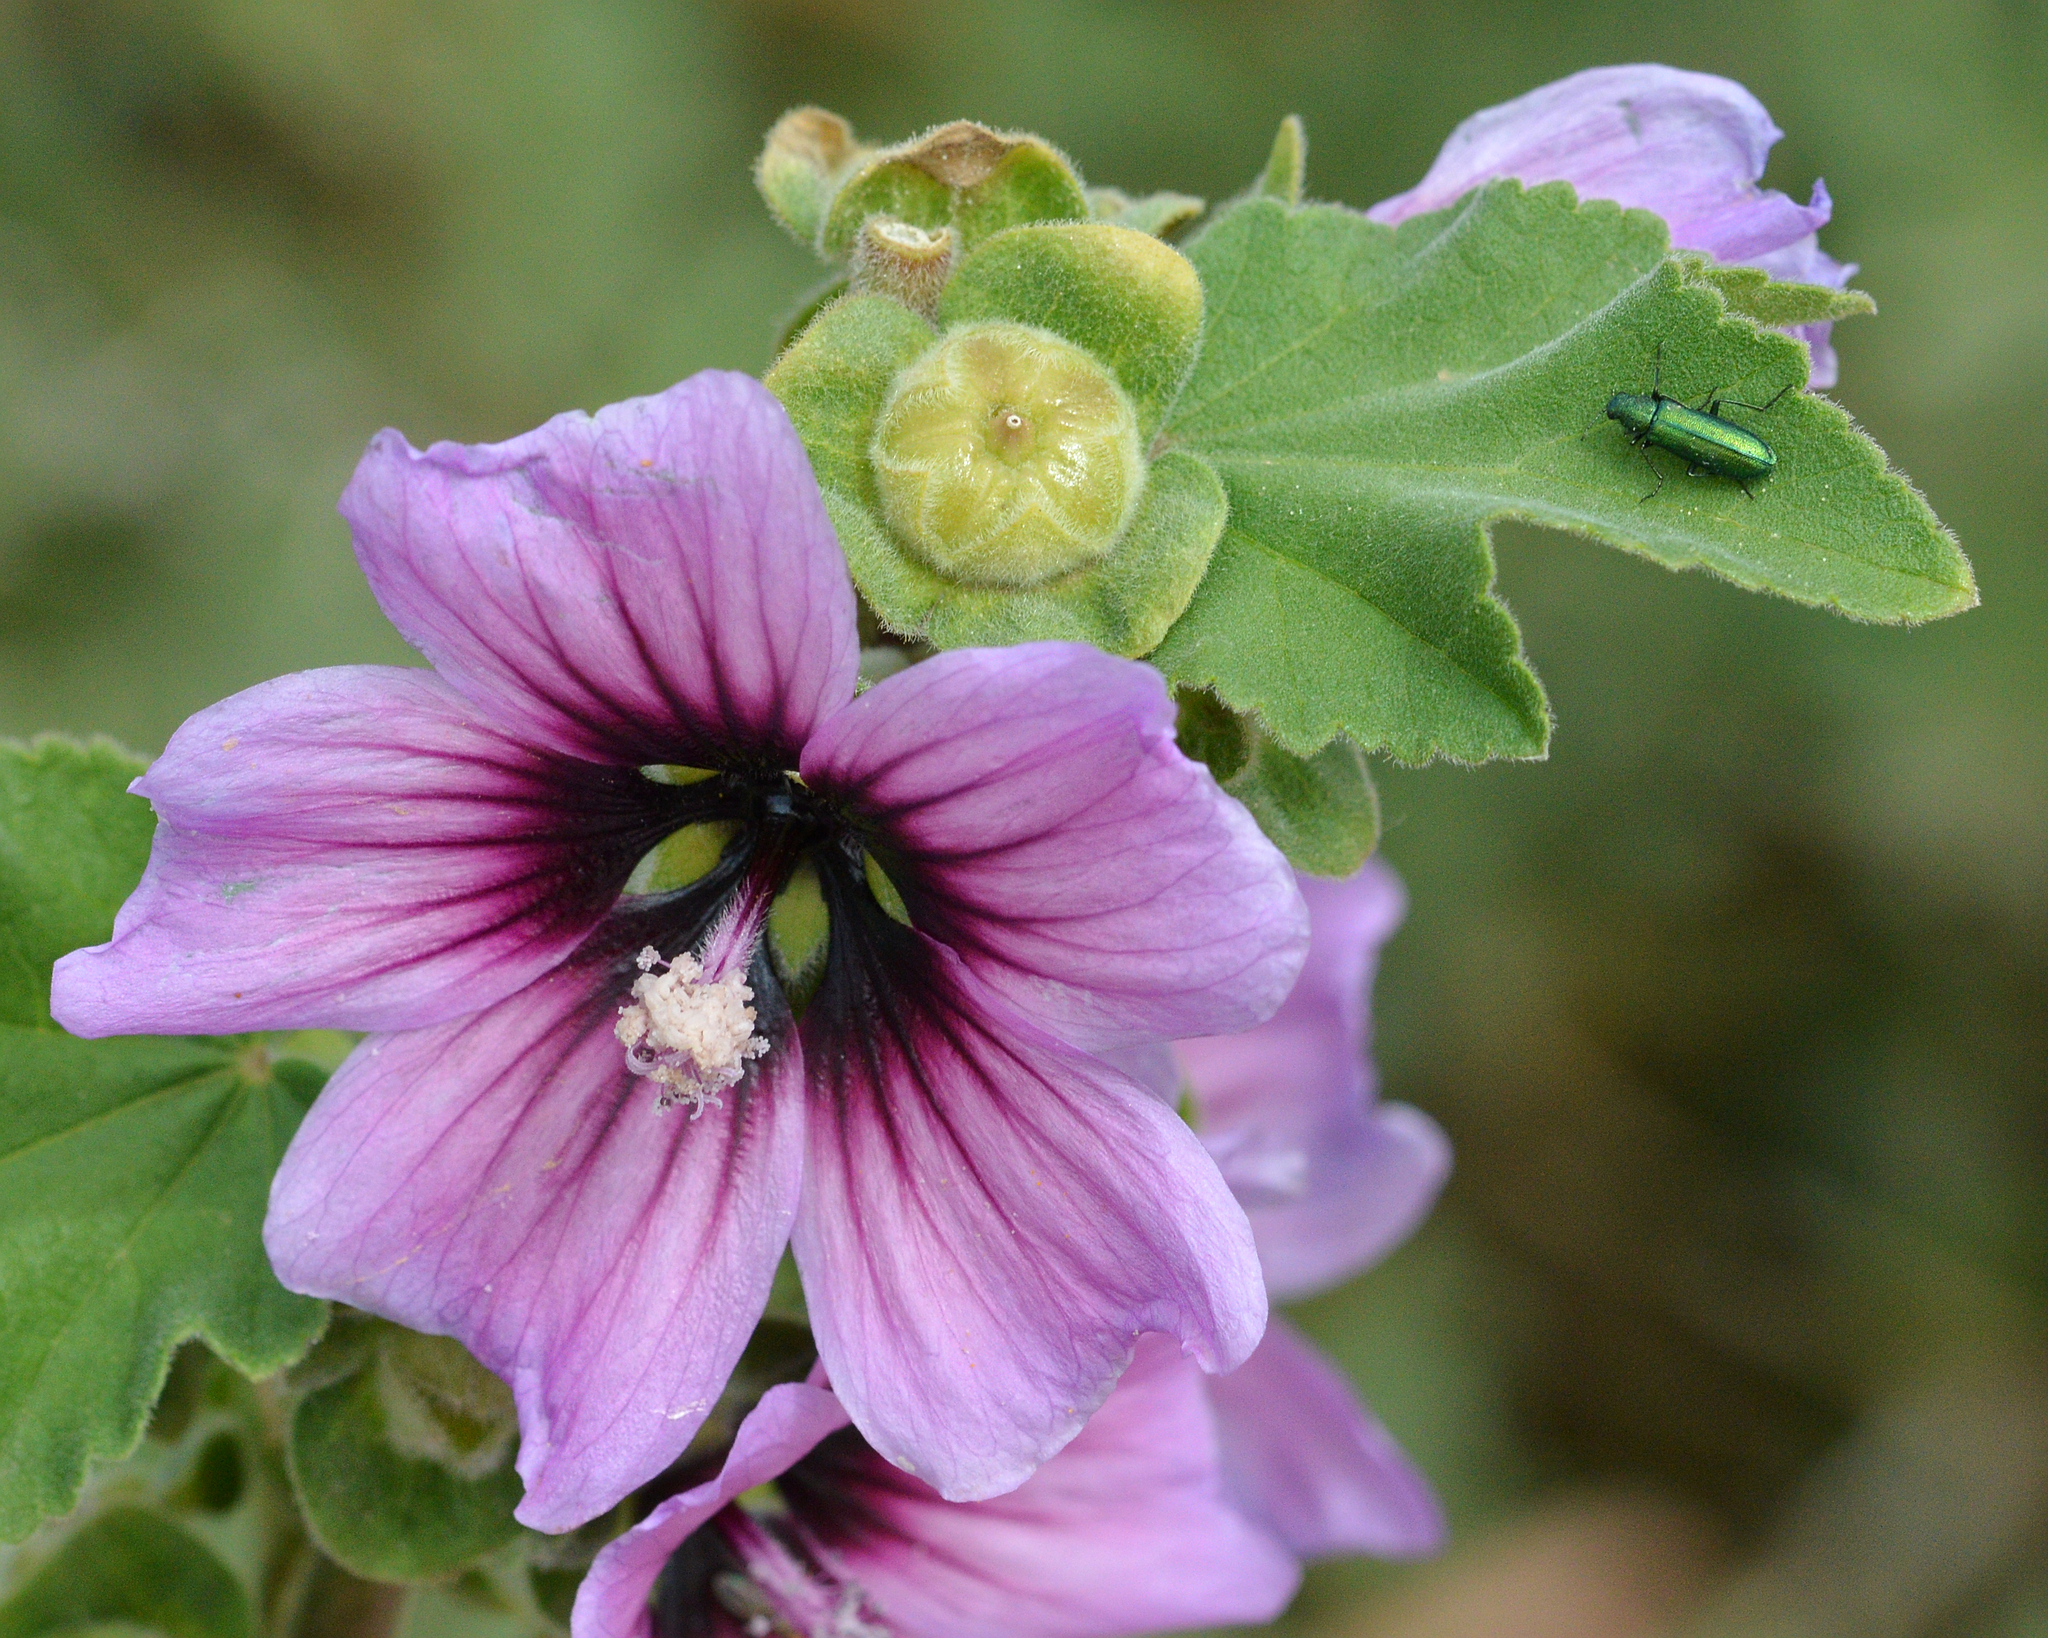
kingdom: Plantae
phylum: Tracheophyta
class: Magnoliopsida
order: Malvales
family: Malvaceae
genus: Malva
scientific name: Malva arborea
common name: Tree mallow
